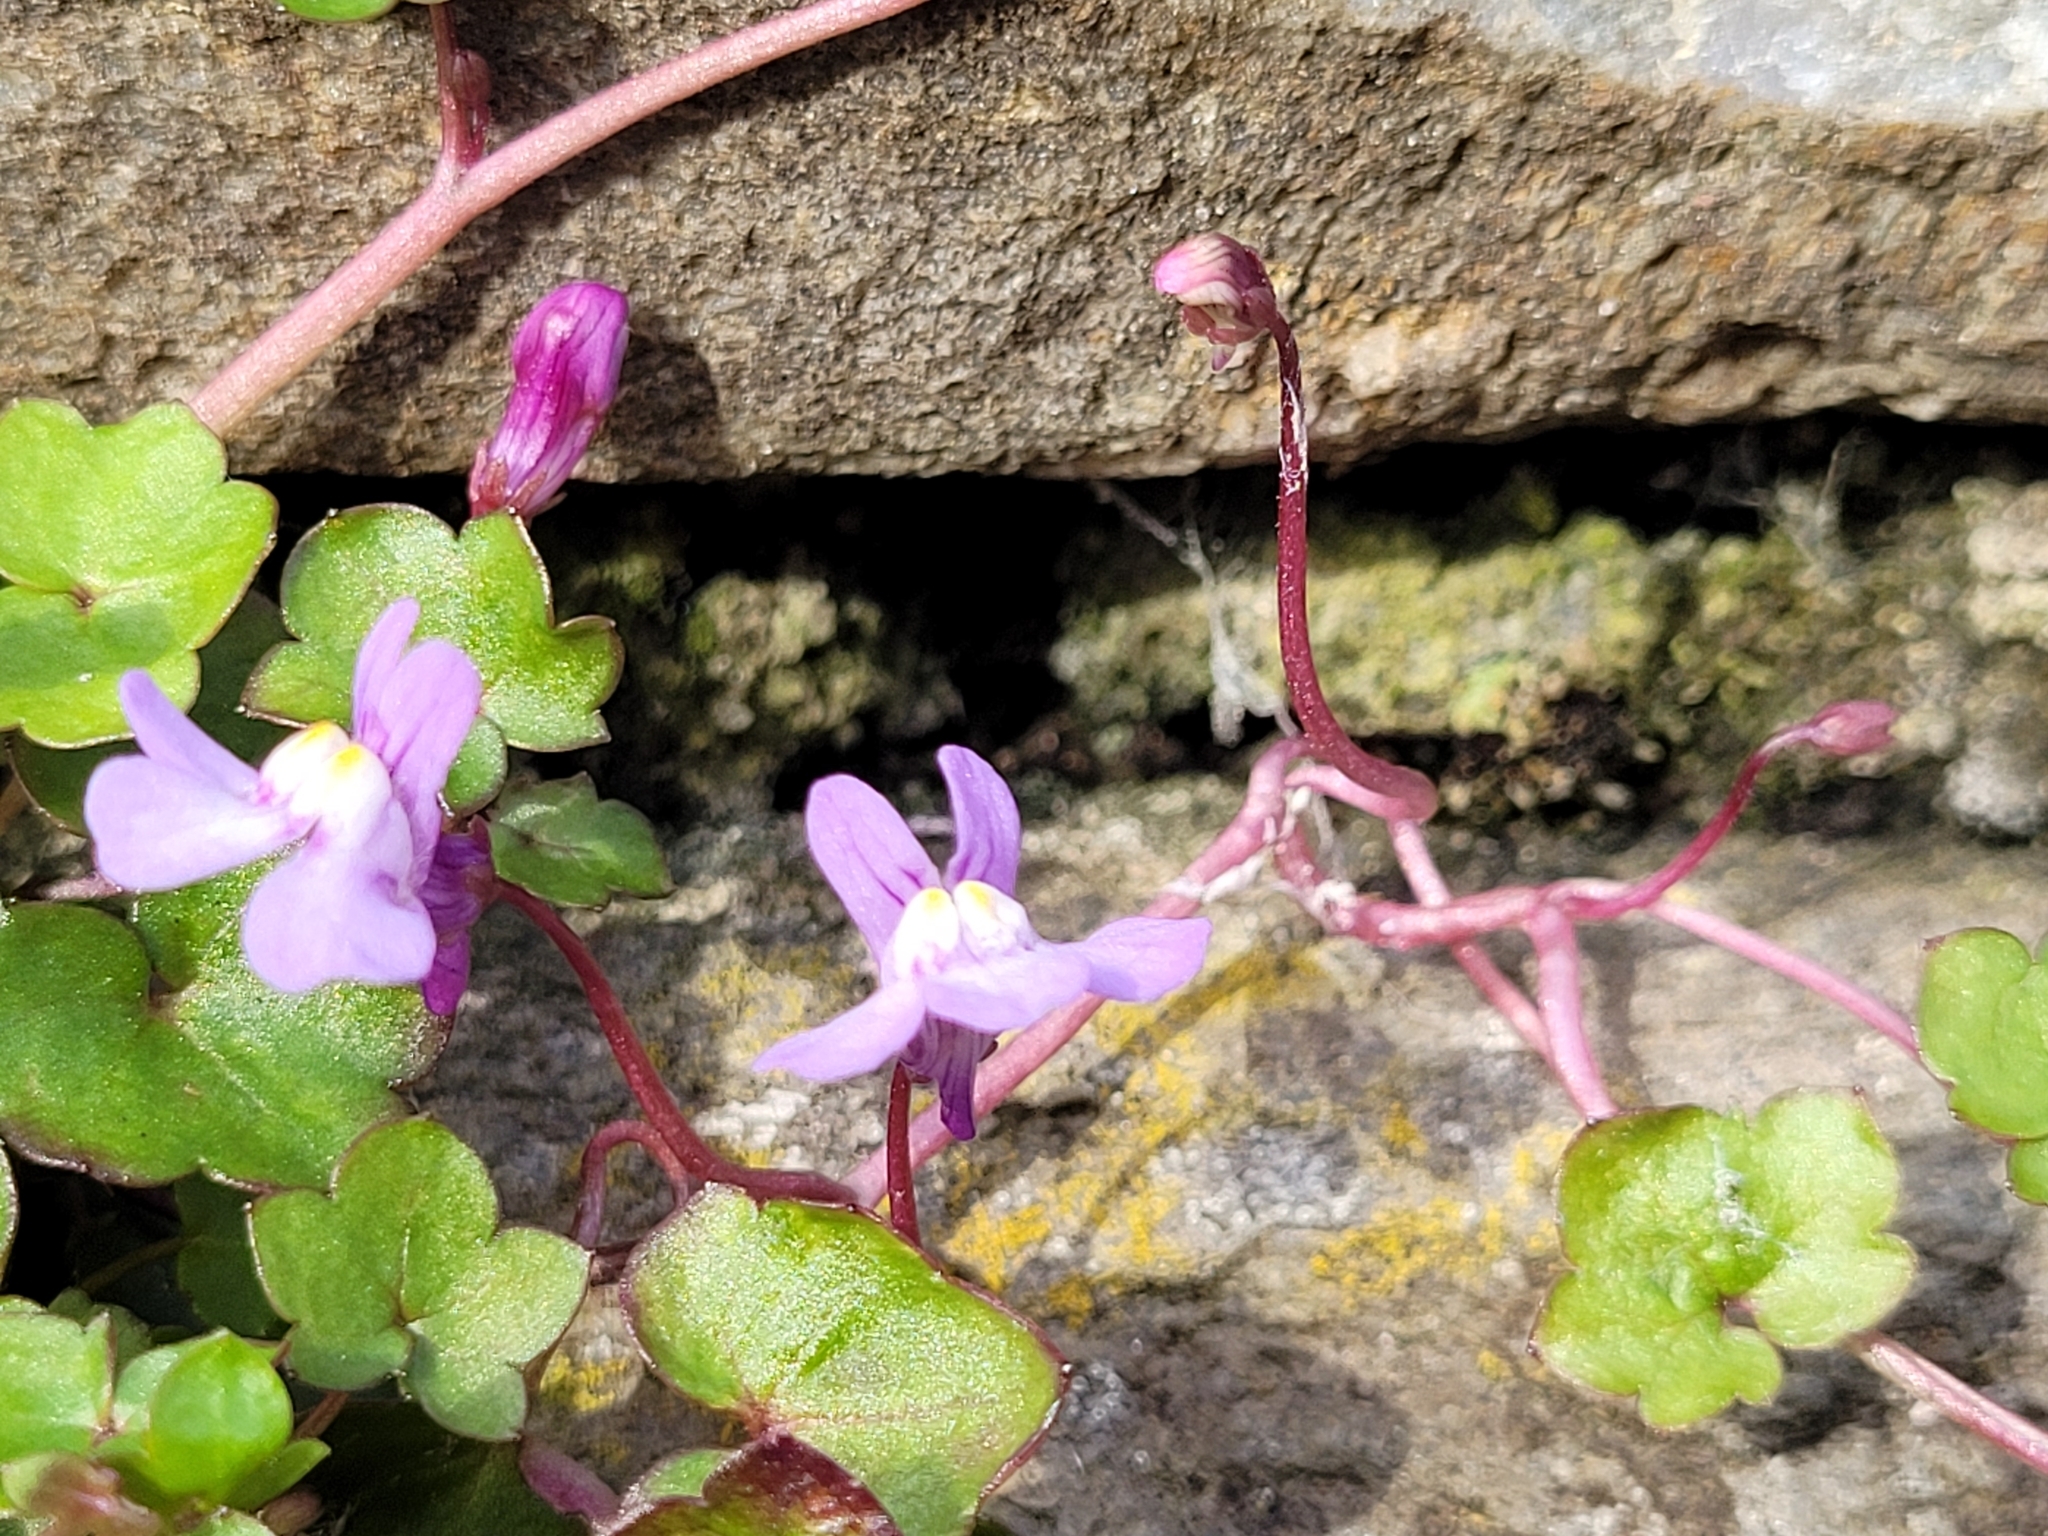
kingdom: Plantae
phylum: Tracheophyta
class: Magnoliopsida
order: Lamiales
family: Plantaginaceae
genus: Cymbalaria
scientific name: Cymbalaria muralis
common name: Ivy-leaved toadflax
